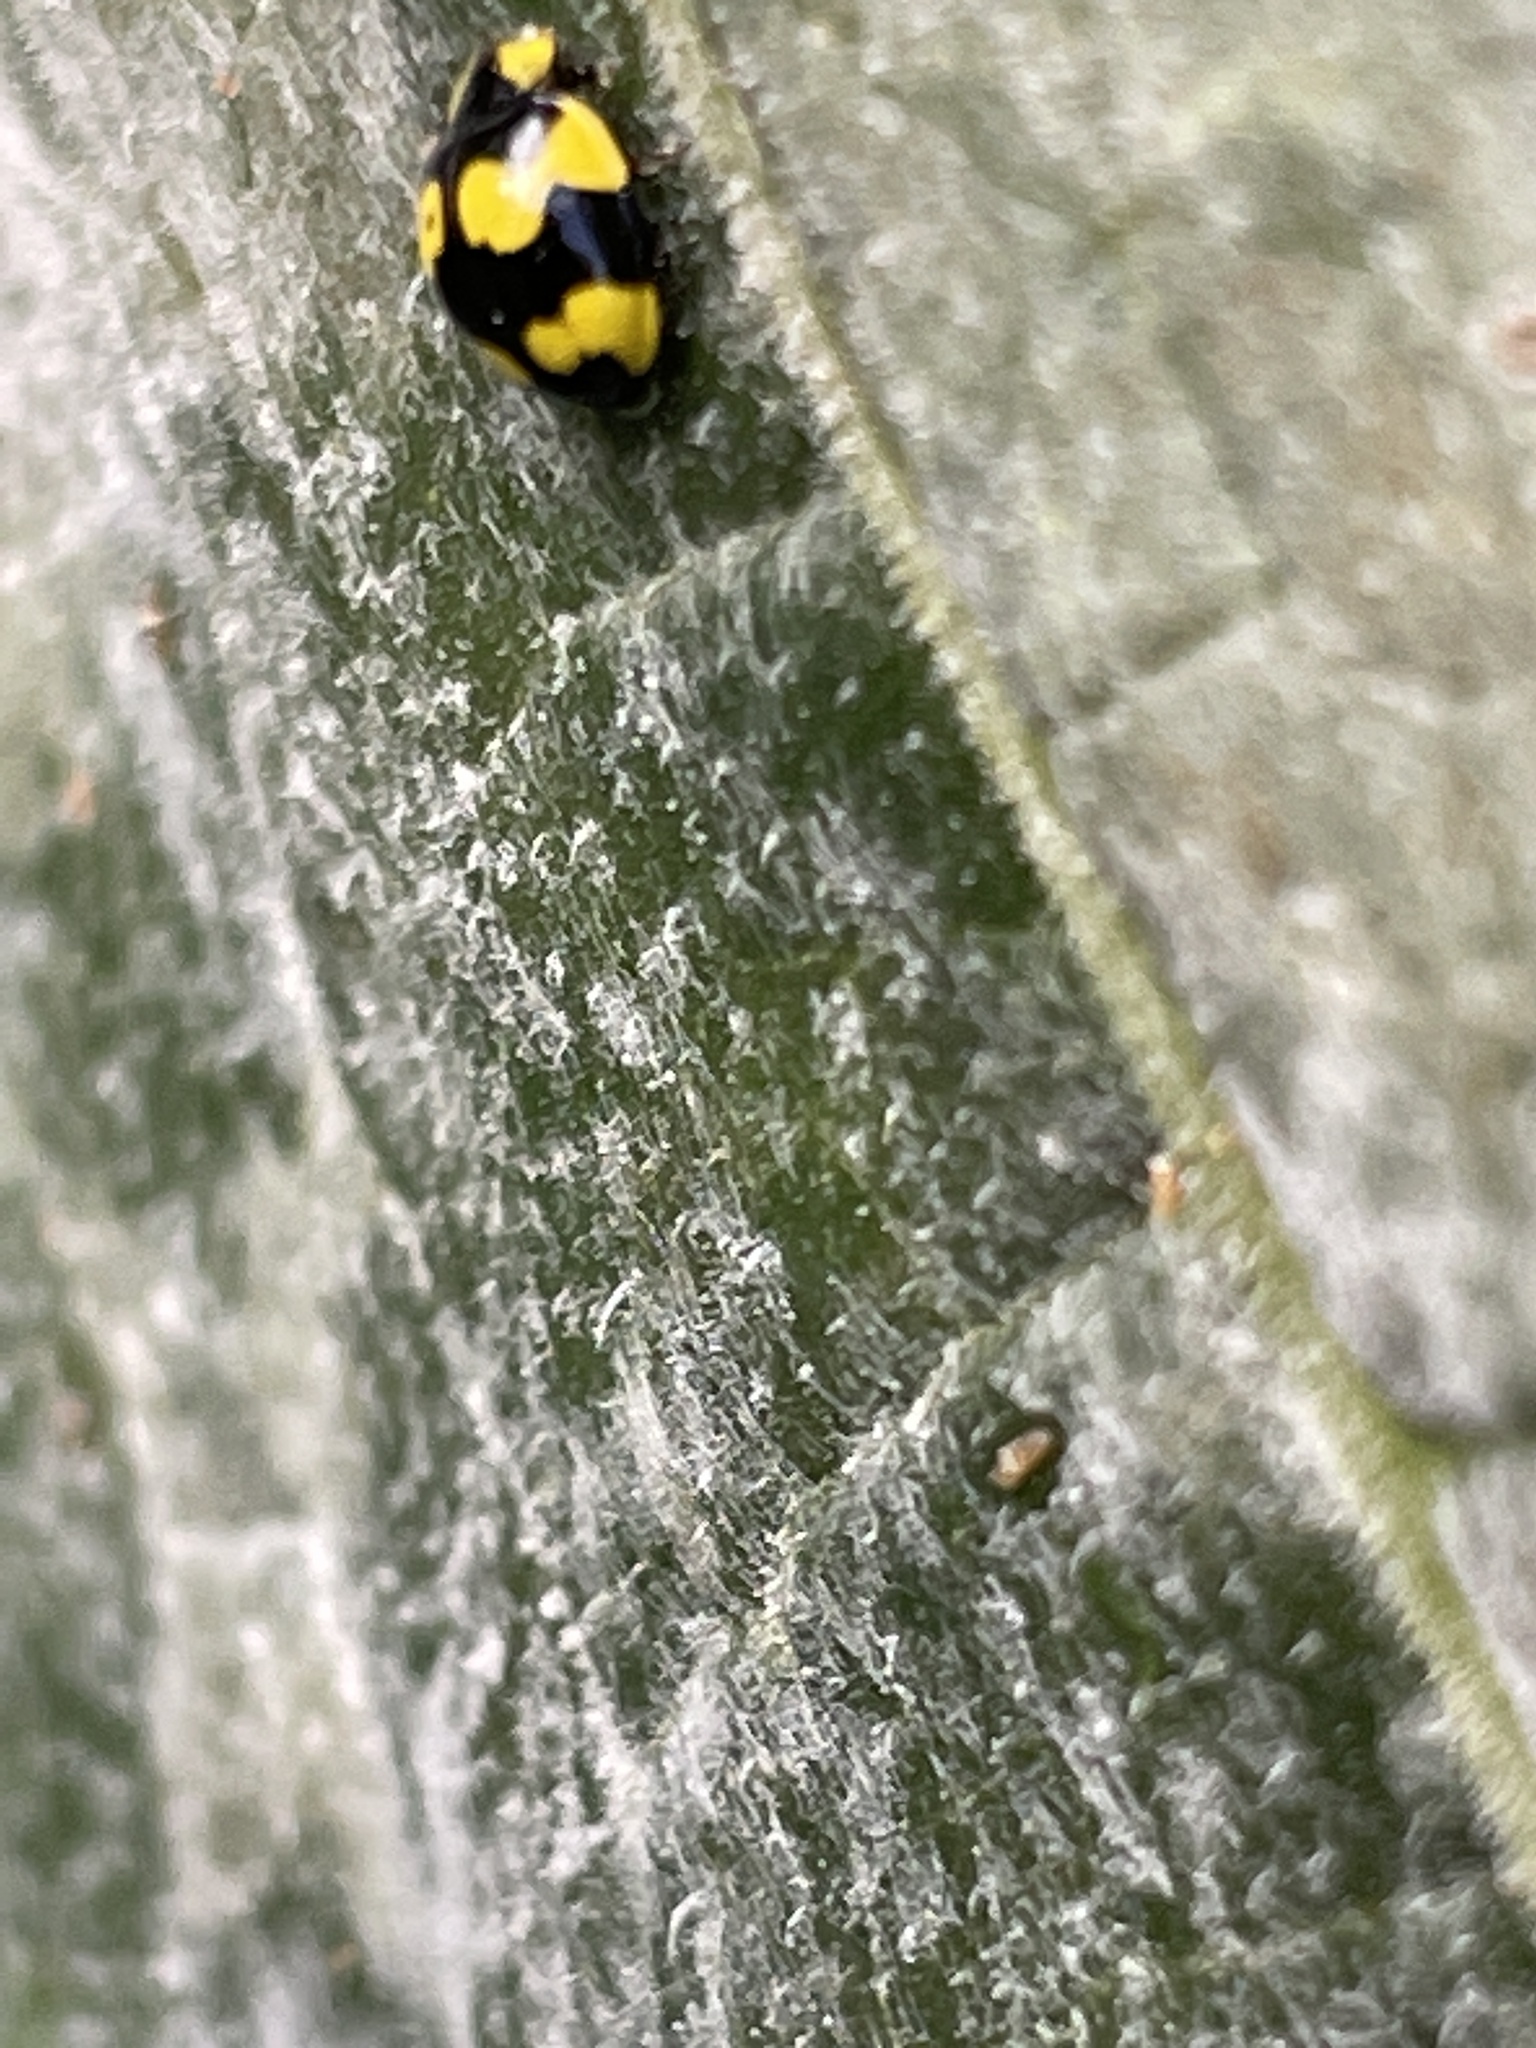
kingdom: Animalia
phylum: Arthropoda
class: Insecta
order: Coleoptera
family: Coccinellidae
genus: Illeis
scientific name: Illeis galbula
